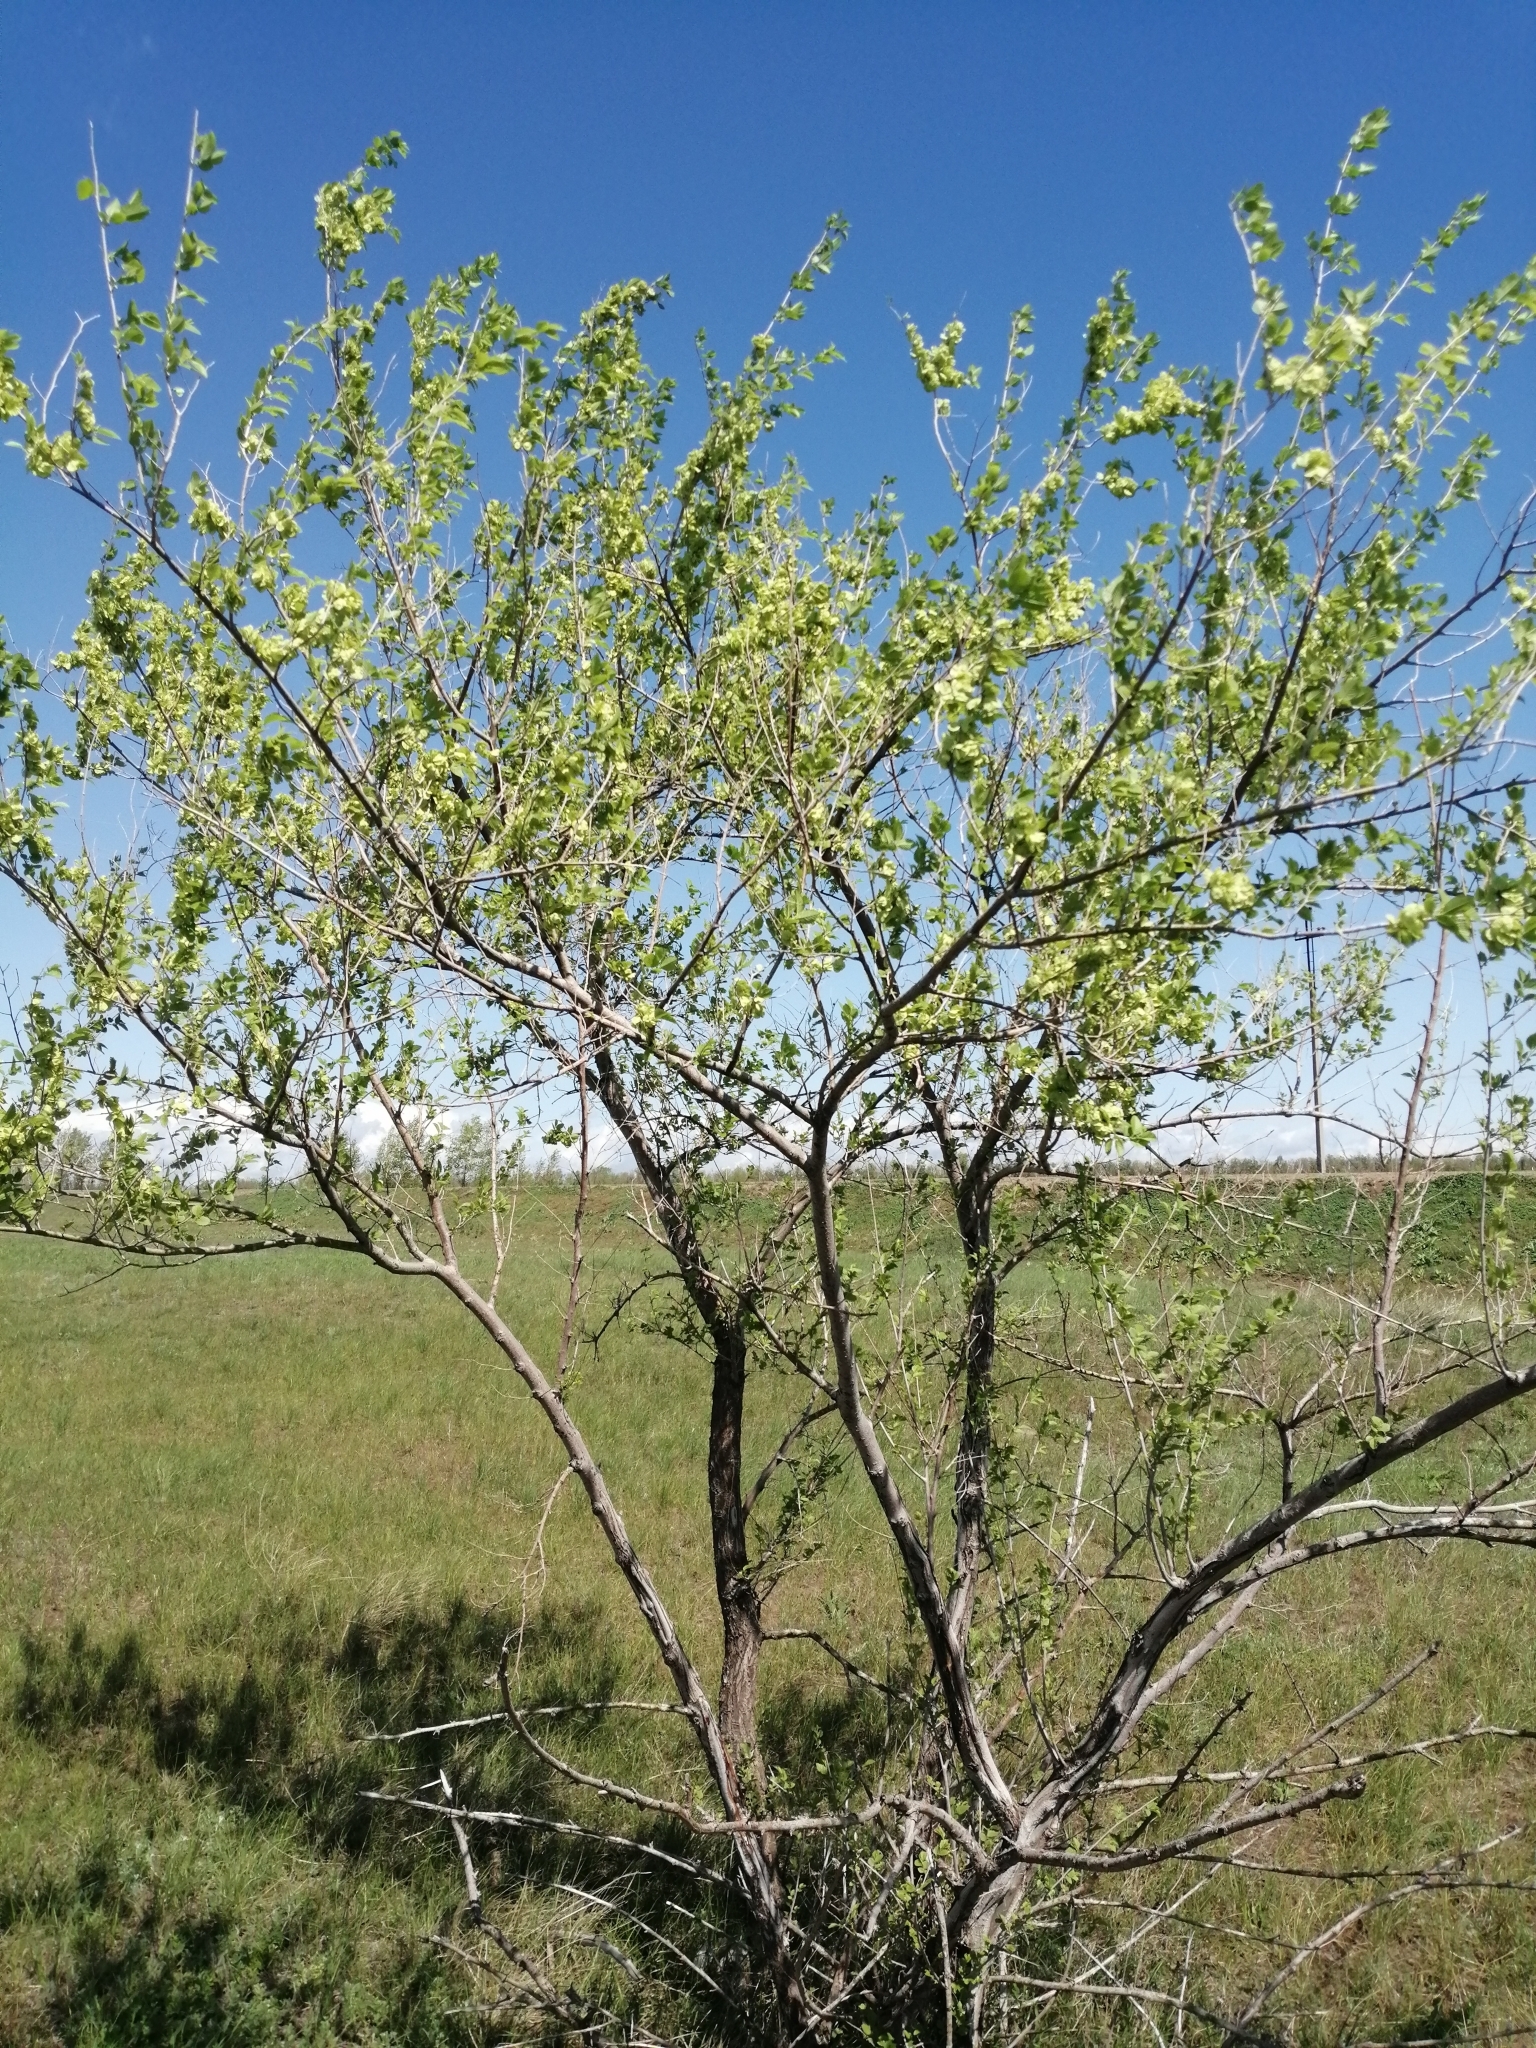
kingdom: Plantae
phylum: Tracheophyta
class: Magnoliopsida
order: Rosales
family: Ulmaceae
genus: Ulmus
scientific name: Ulmus pumila
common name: Siberian elm
